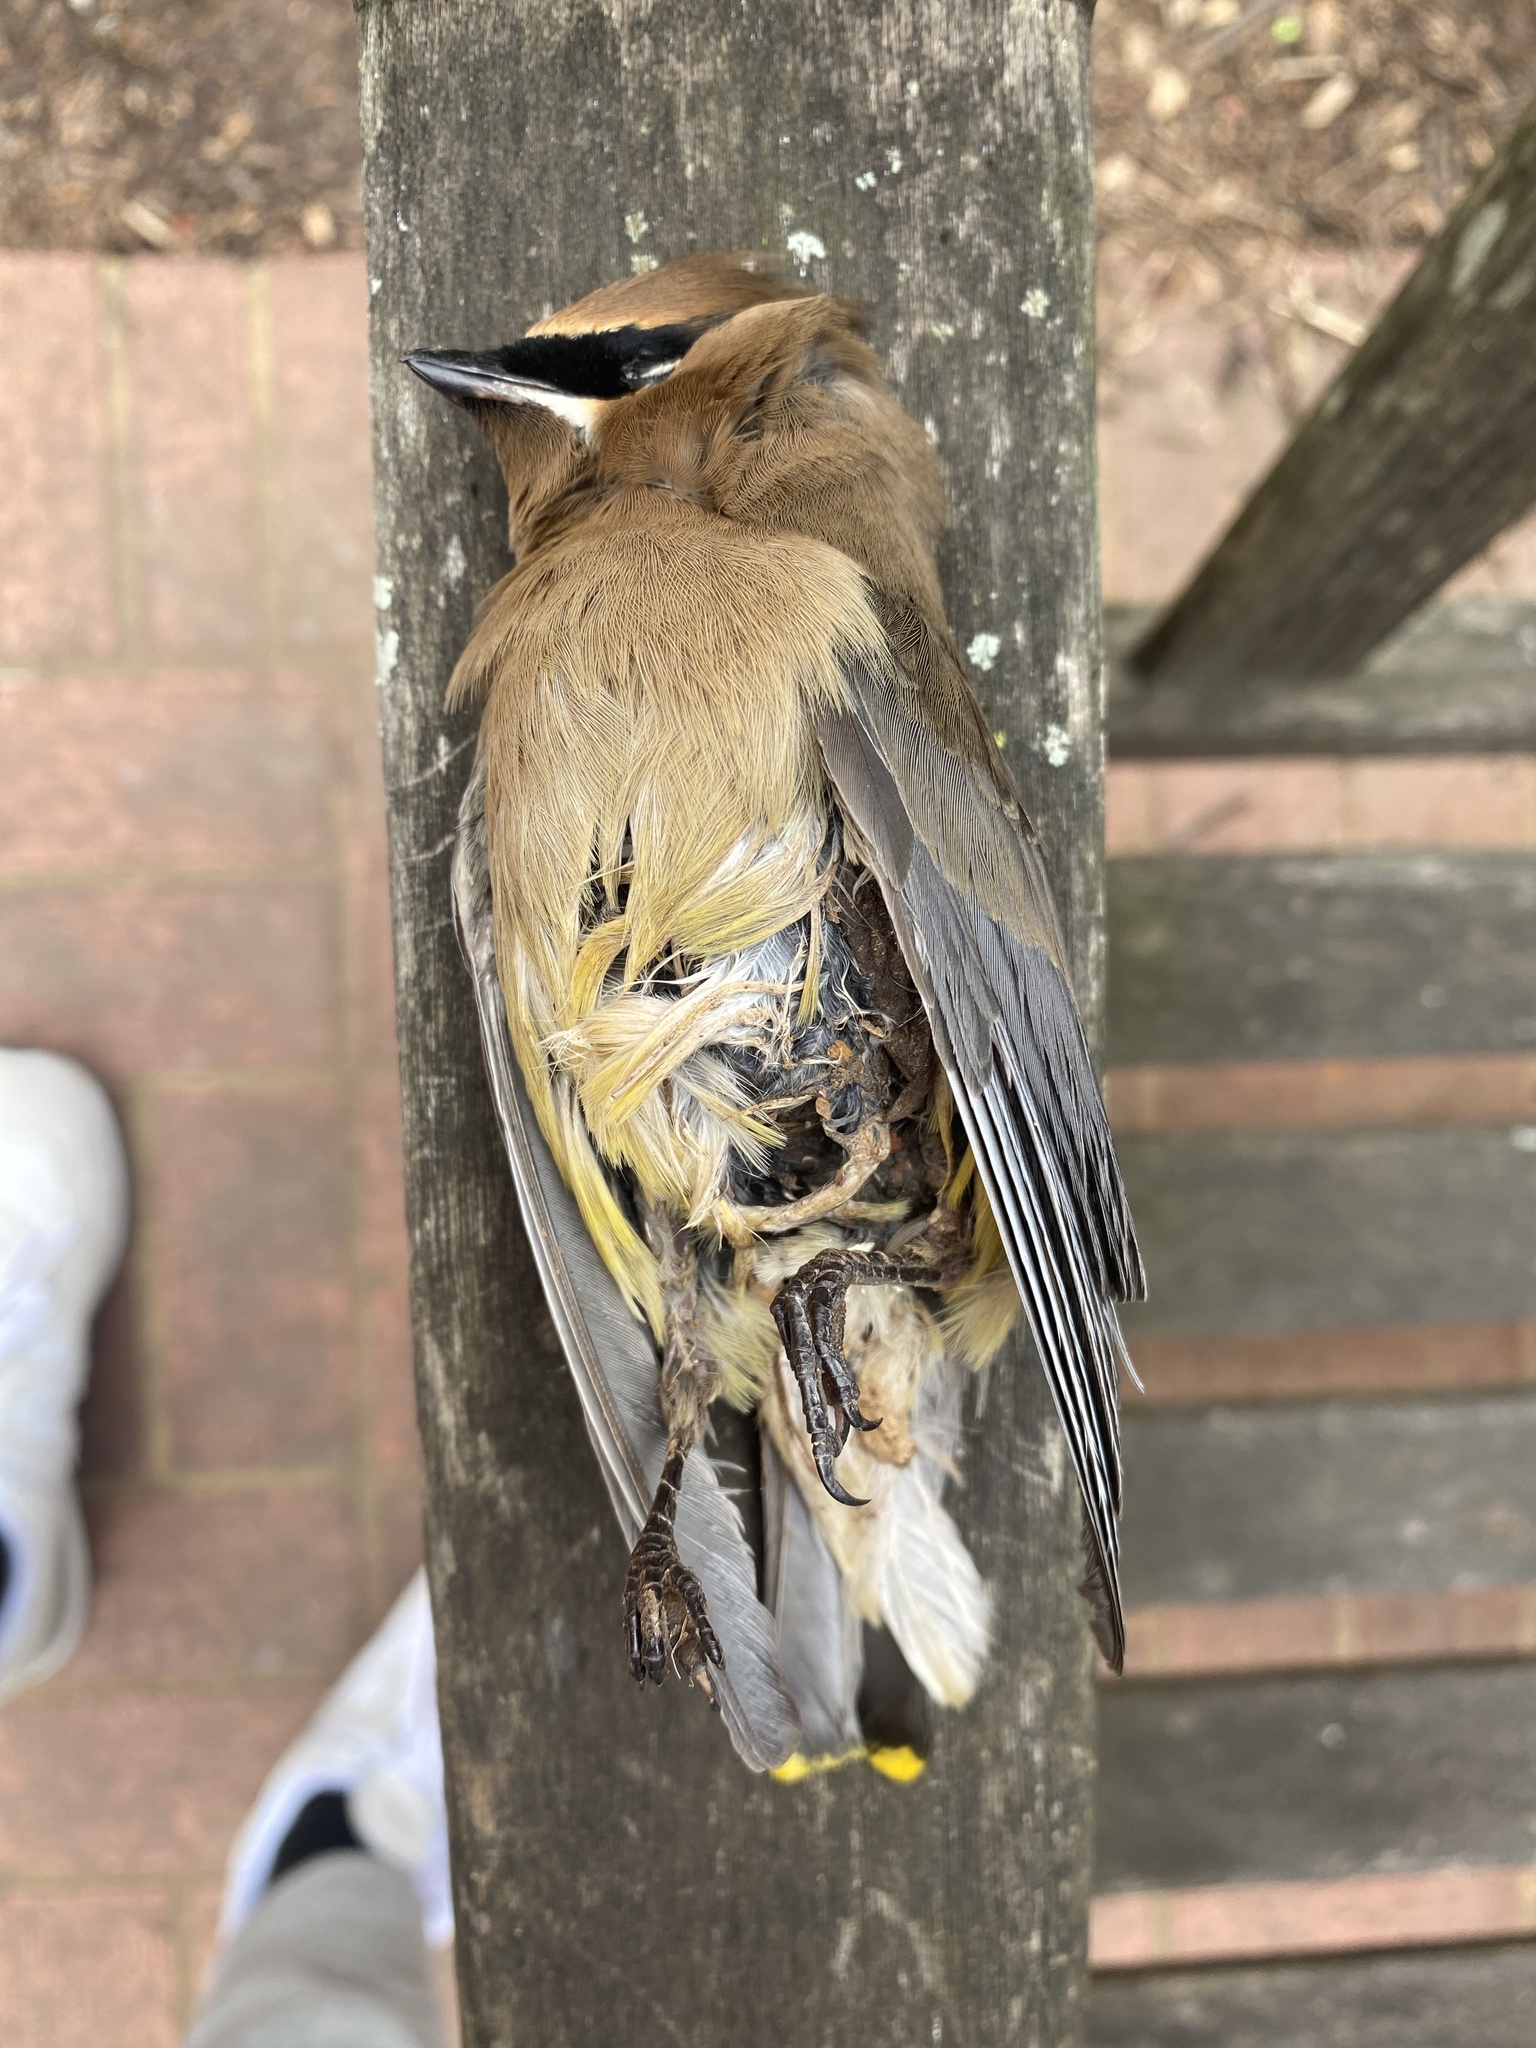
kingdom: Animalia
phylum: Chordata
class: Aves
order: Passeriformes
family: Bombycillidae
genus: Bombycilla
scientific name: Bombycilla cedrorum
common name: Cedar waxwing
